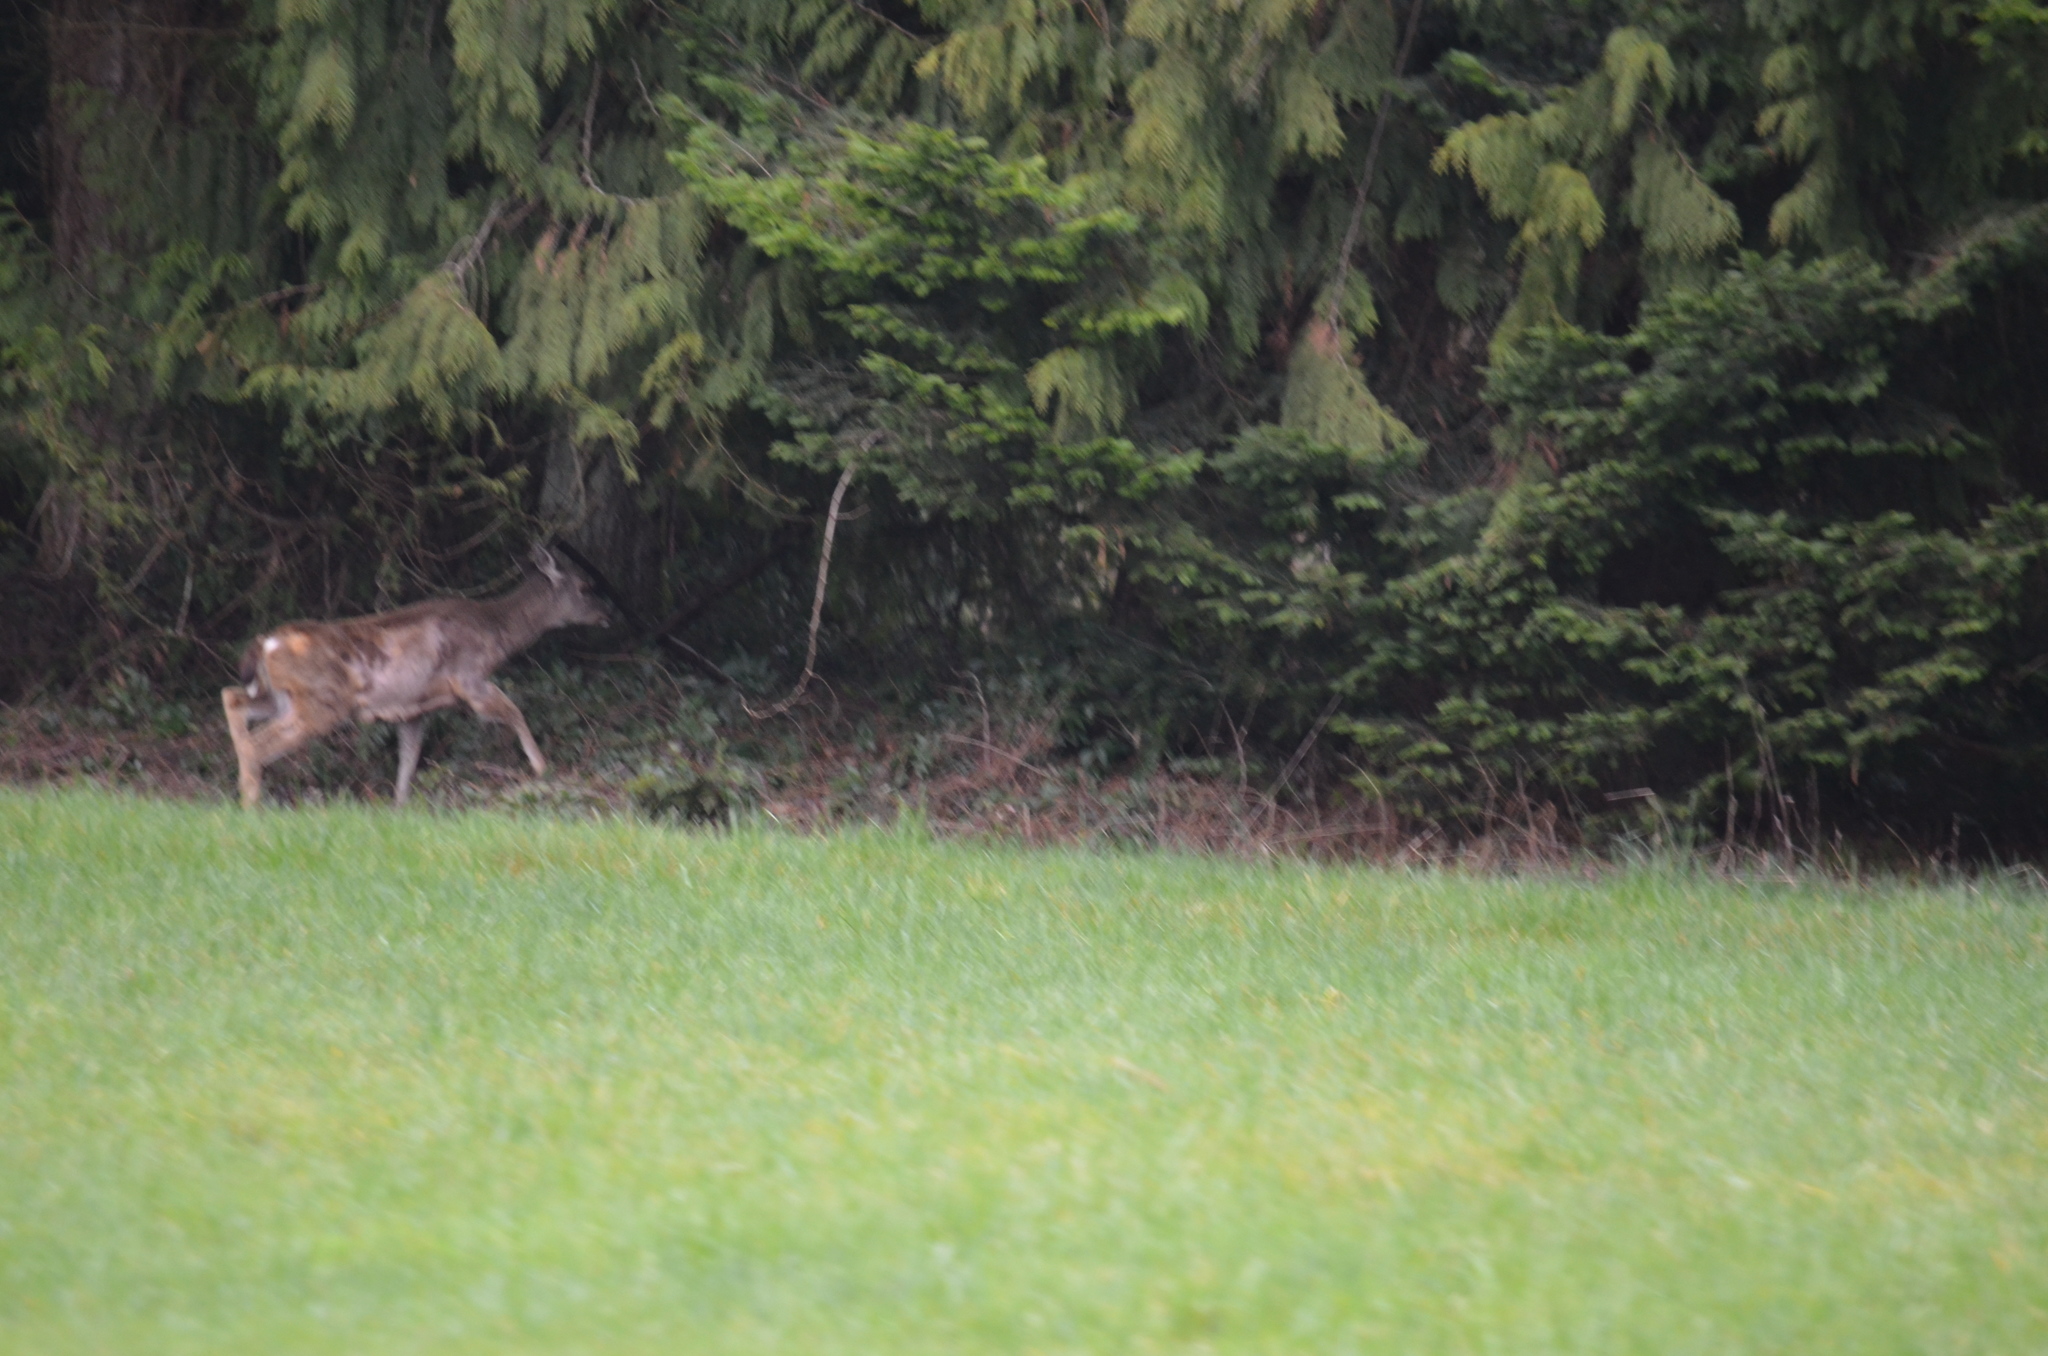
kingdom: Animalia
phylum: Chordata
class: Mammalia
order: Artiodactyla
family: Cervidae
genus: Odocoileus
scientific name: Odocoileus hemionus
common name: Mule deer
